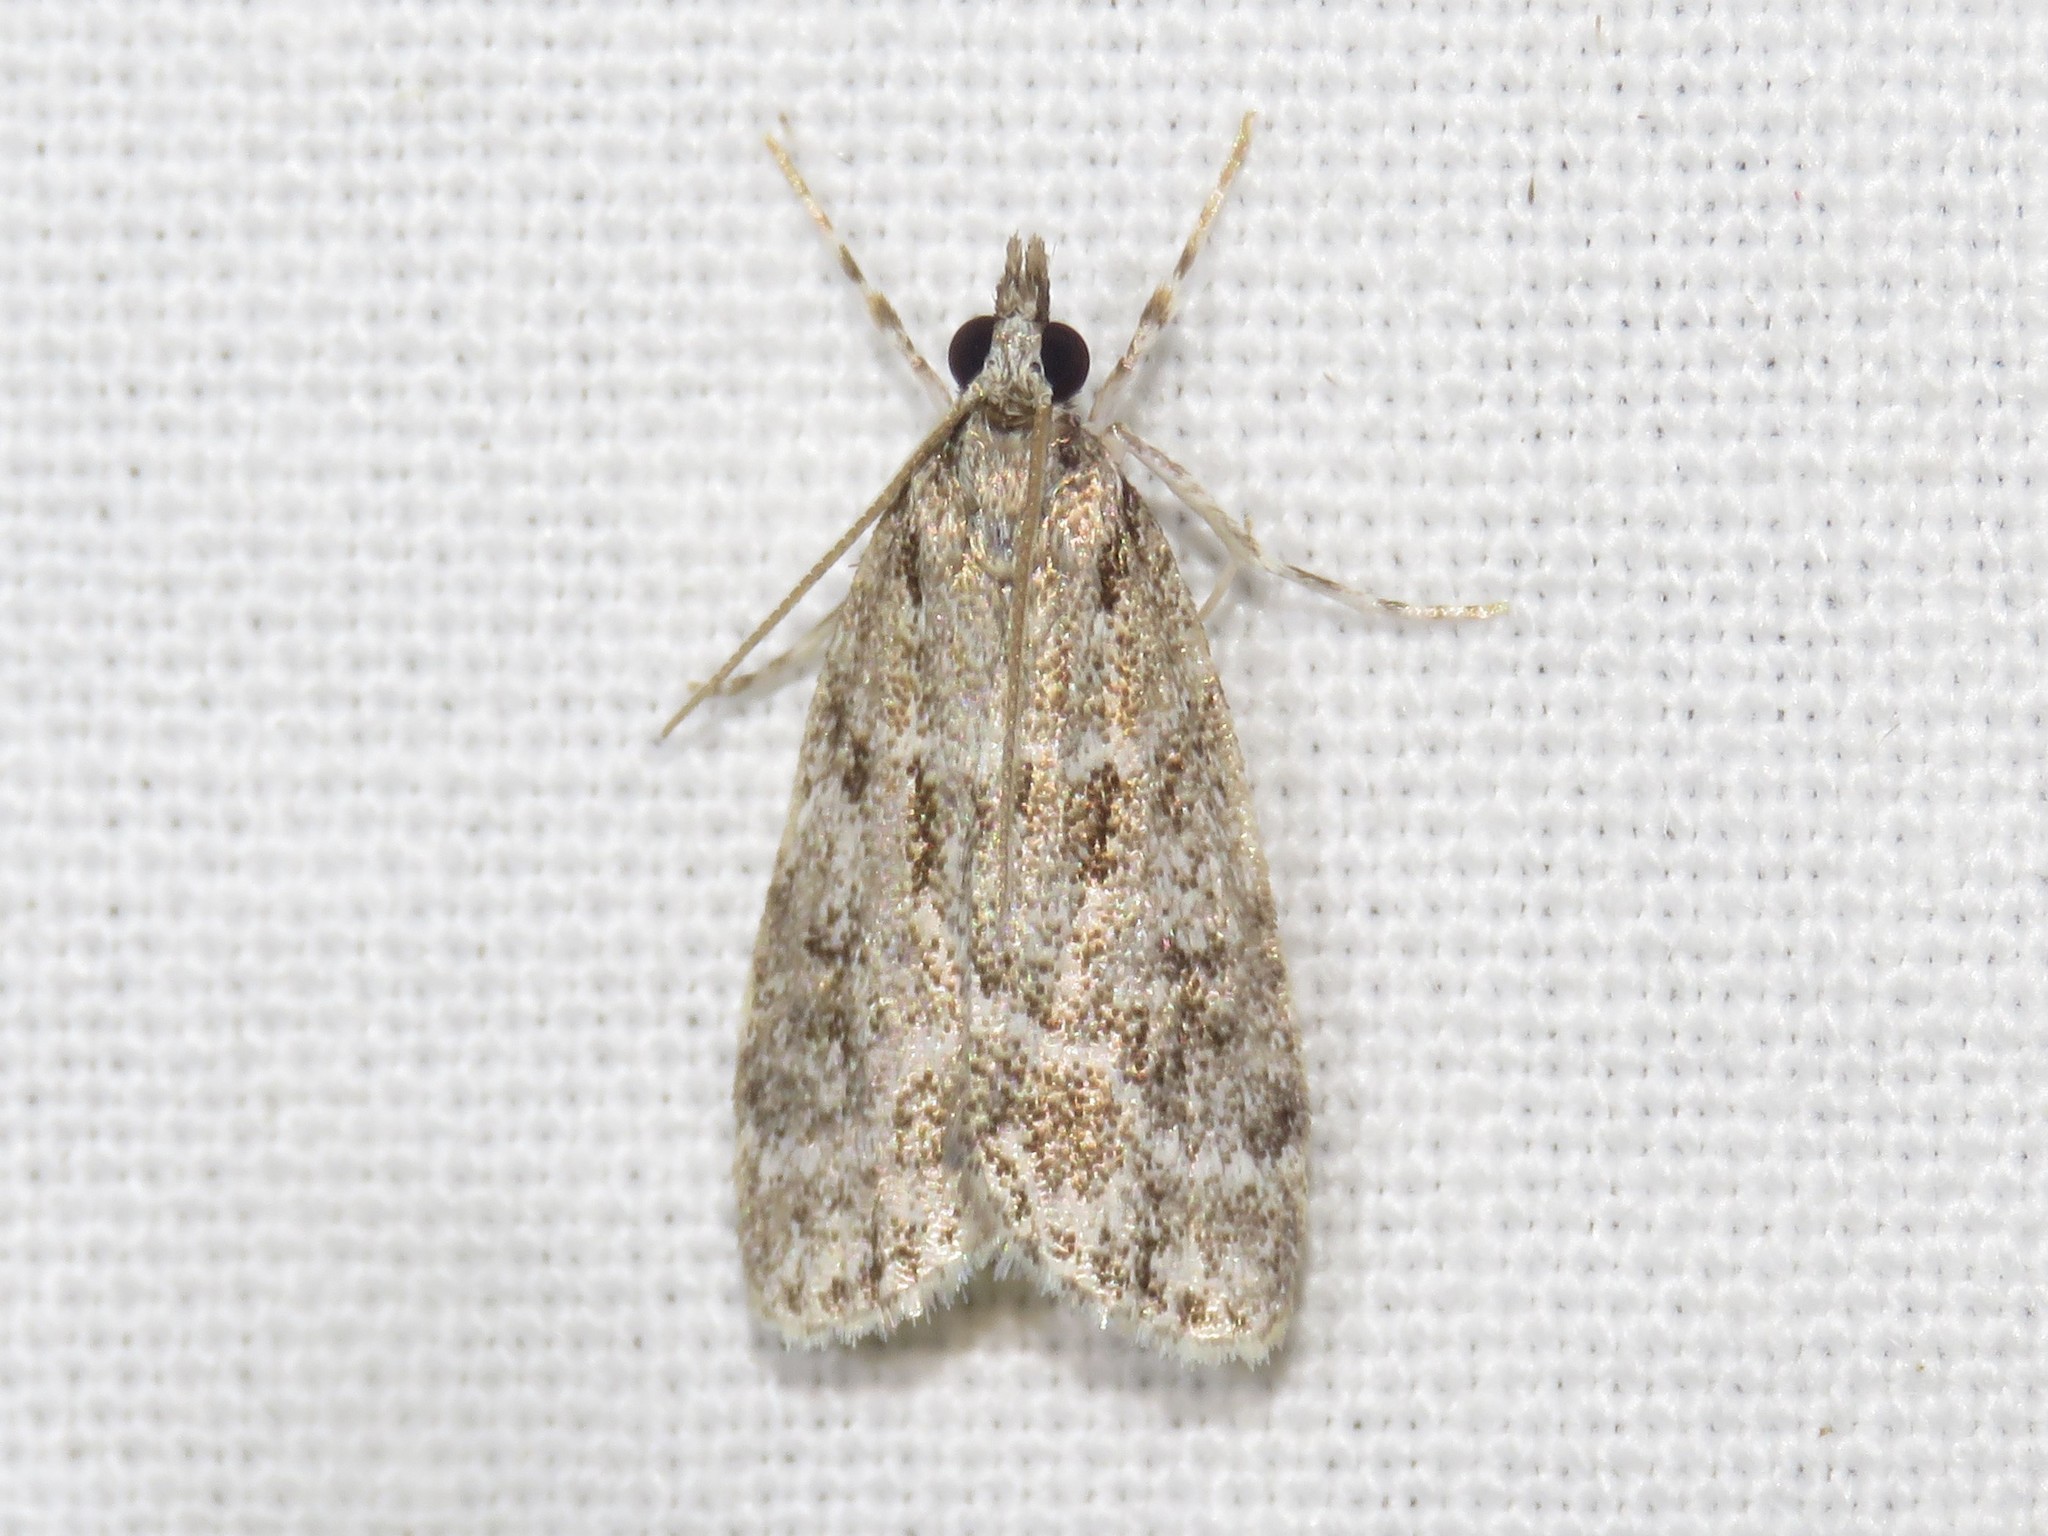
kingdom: Animalia
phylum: Arthropoda
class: Insecta
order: Lepidoptera
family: Crambidae
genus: Scoparia
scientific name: Scoparia basalis
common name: Many-spotted scoparia moth
